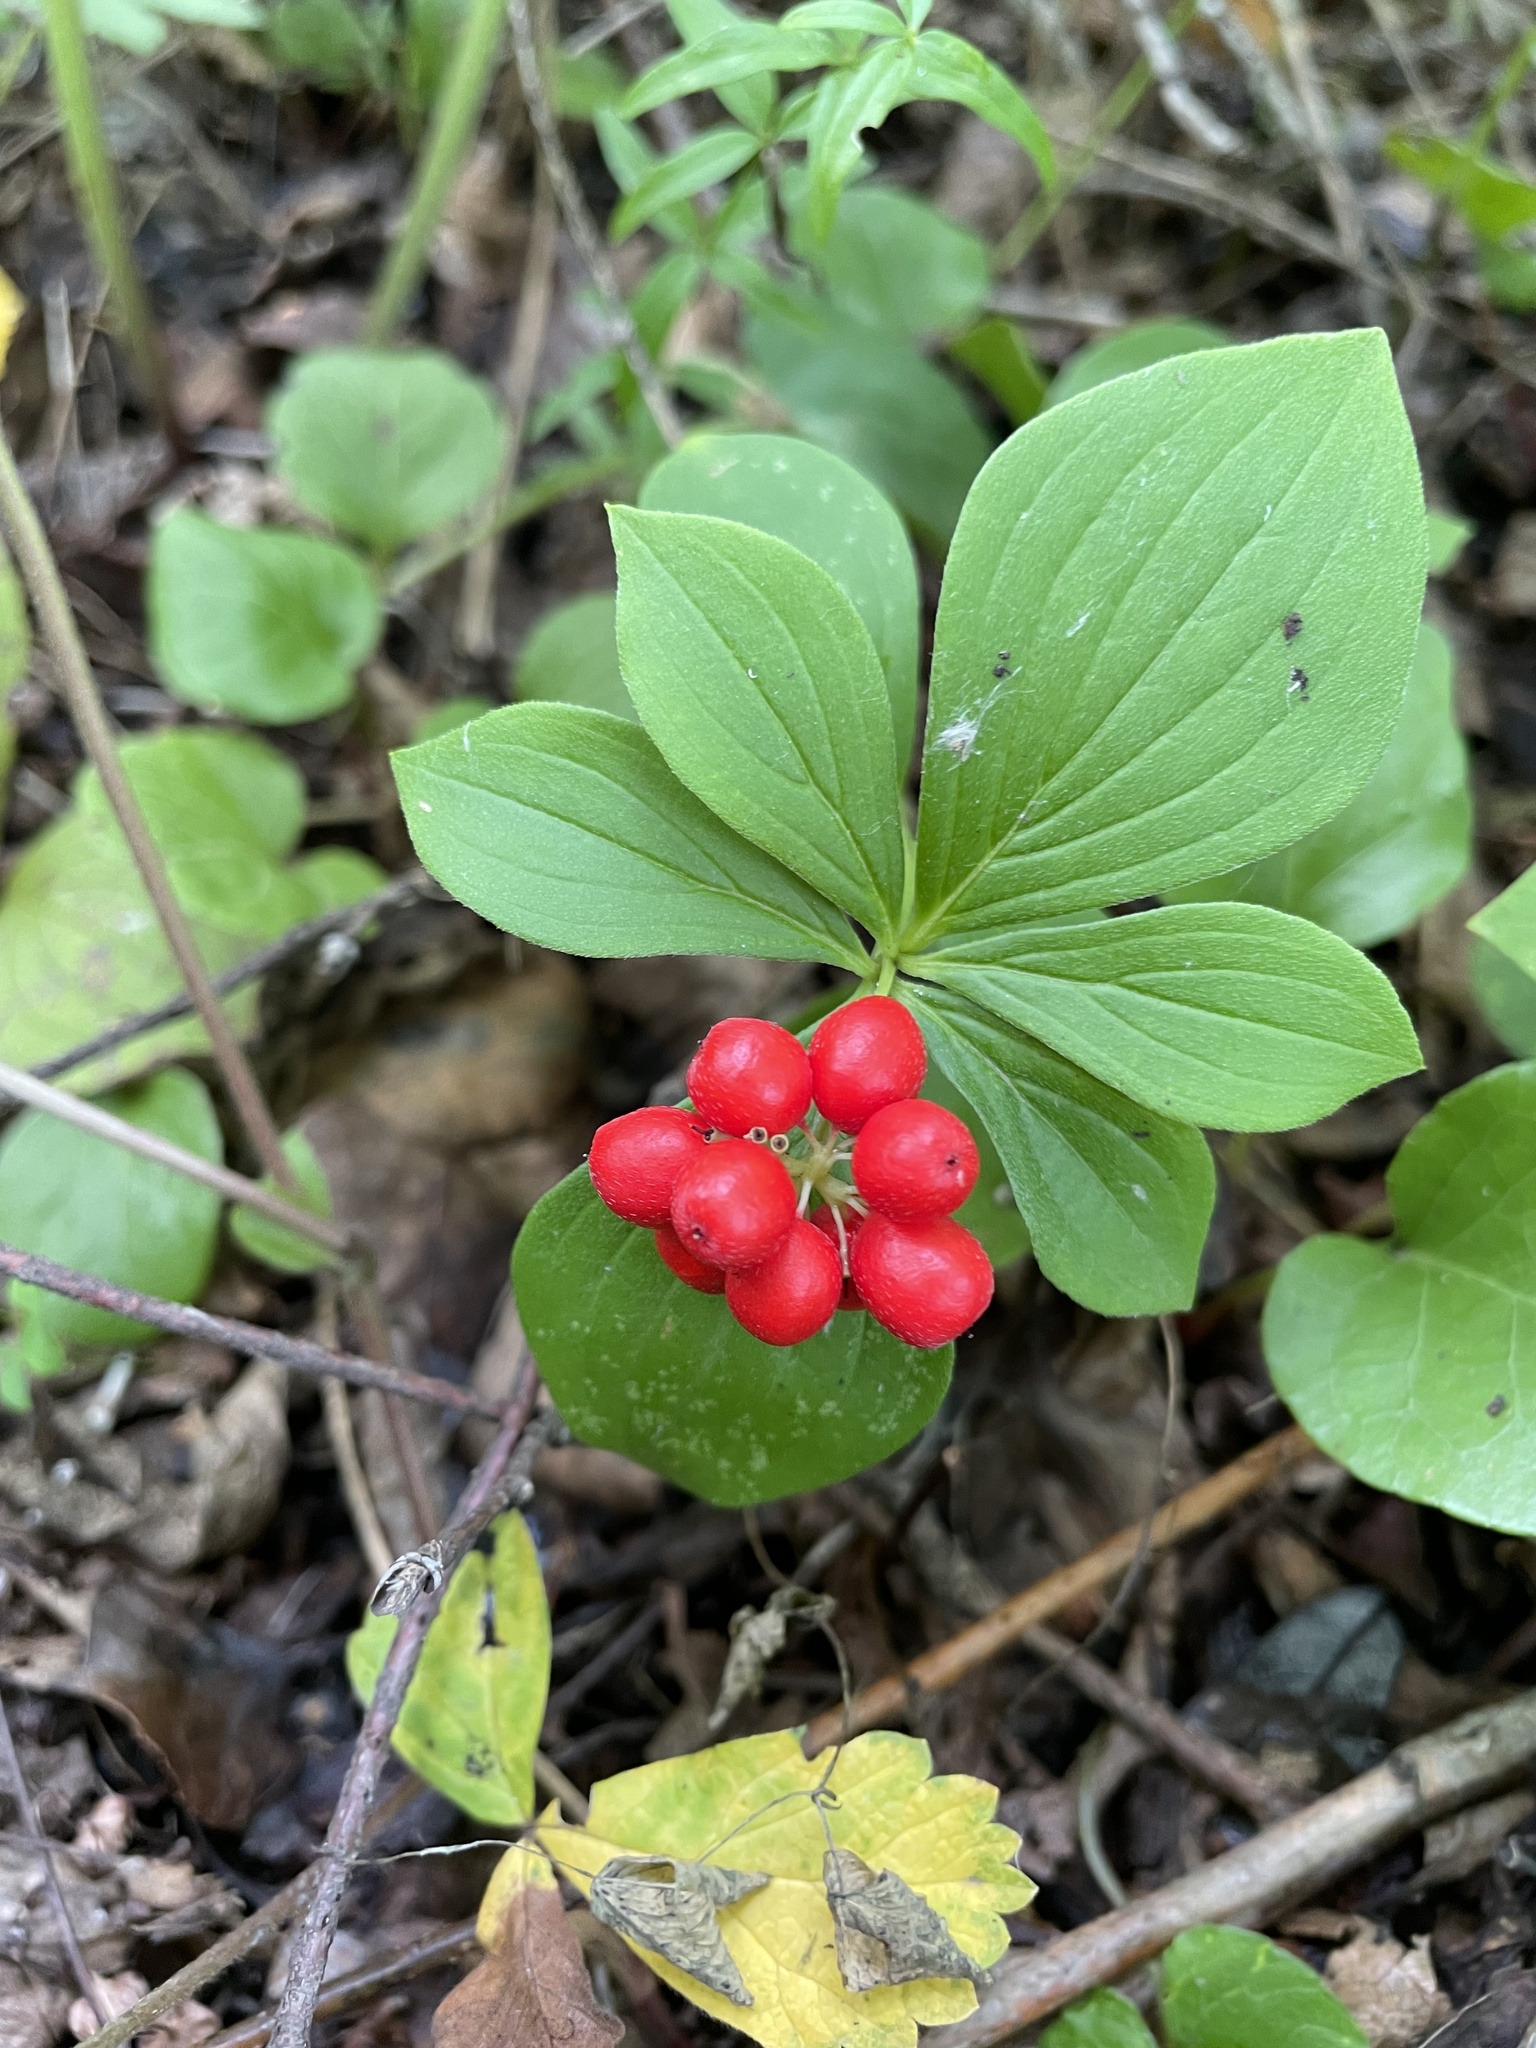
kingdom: Plantae
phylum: Tracheophyta
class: Magnoliopsida
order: Cornales
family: Cornaceae
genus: Cornus
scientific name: Cornus canadensis
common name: Creeping dogwood
